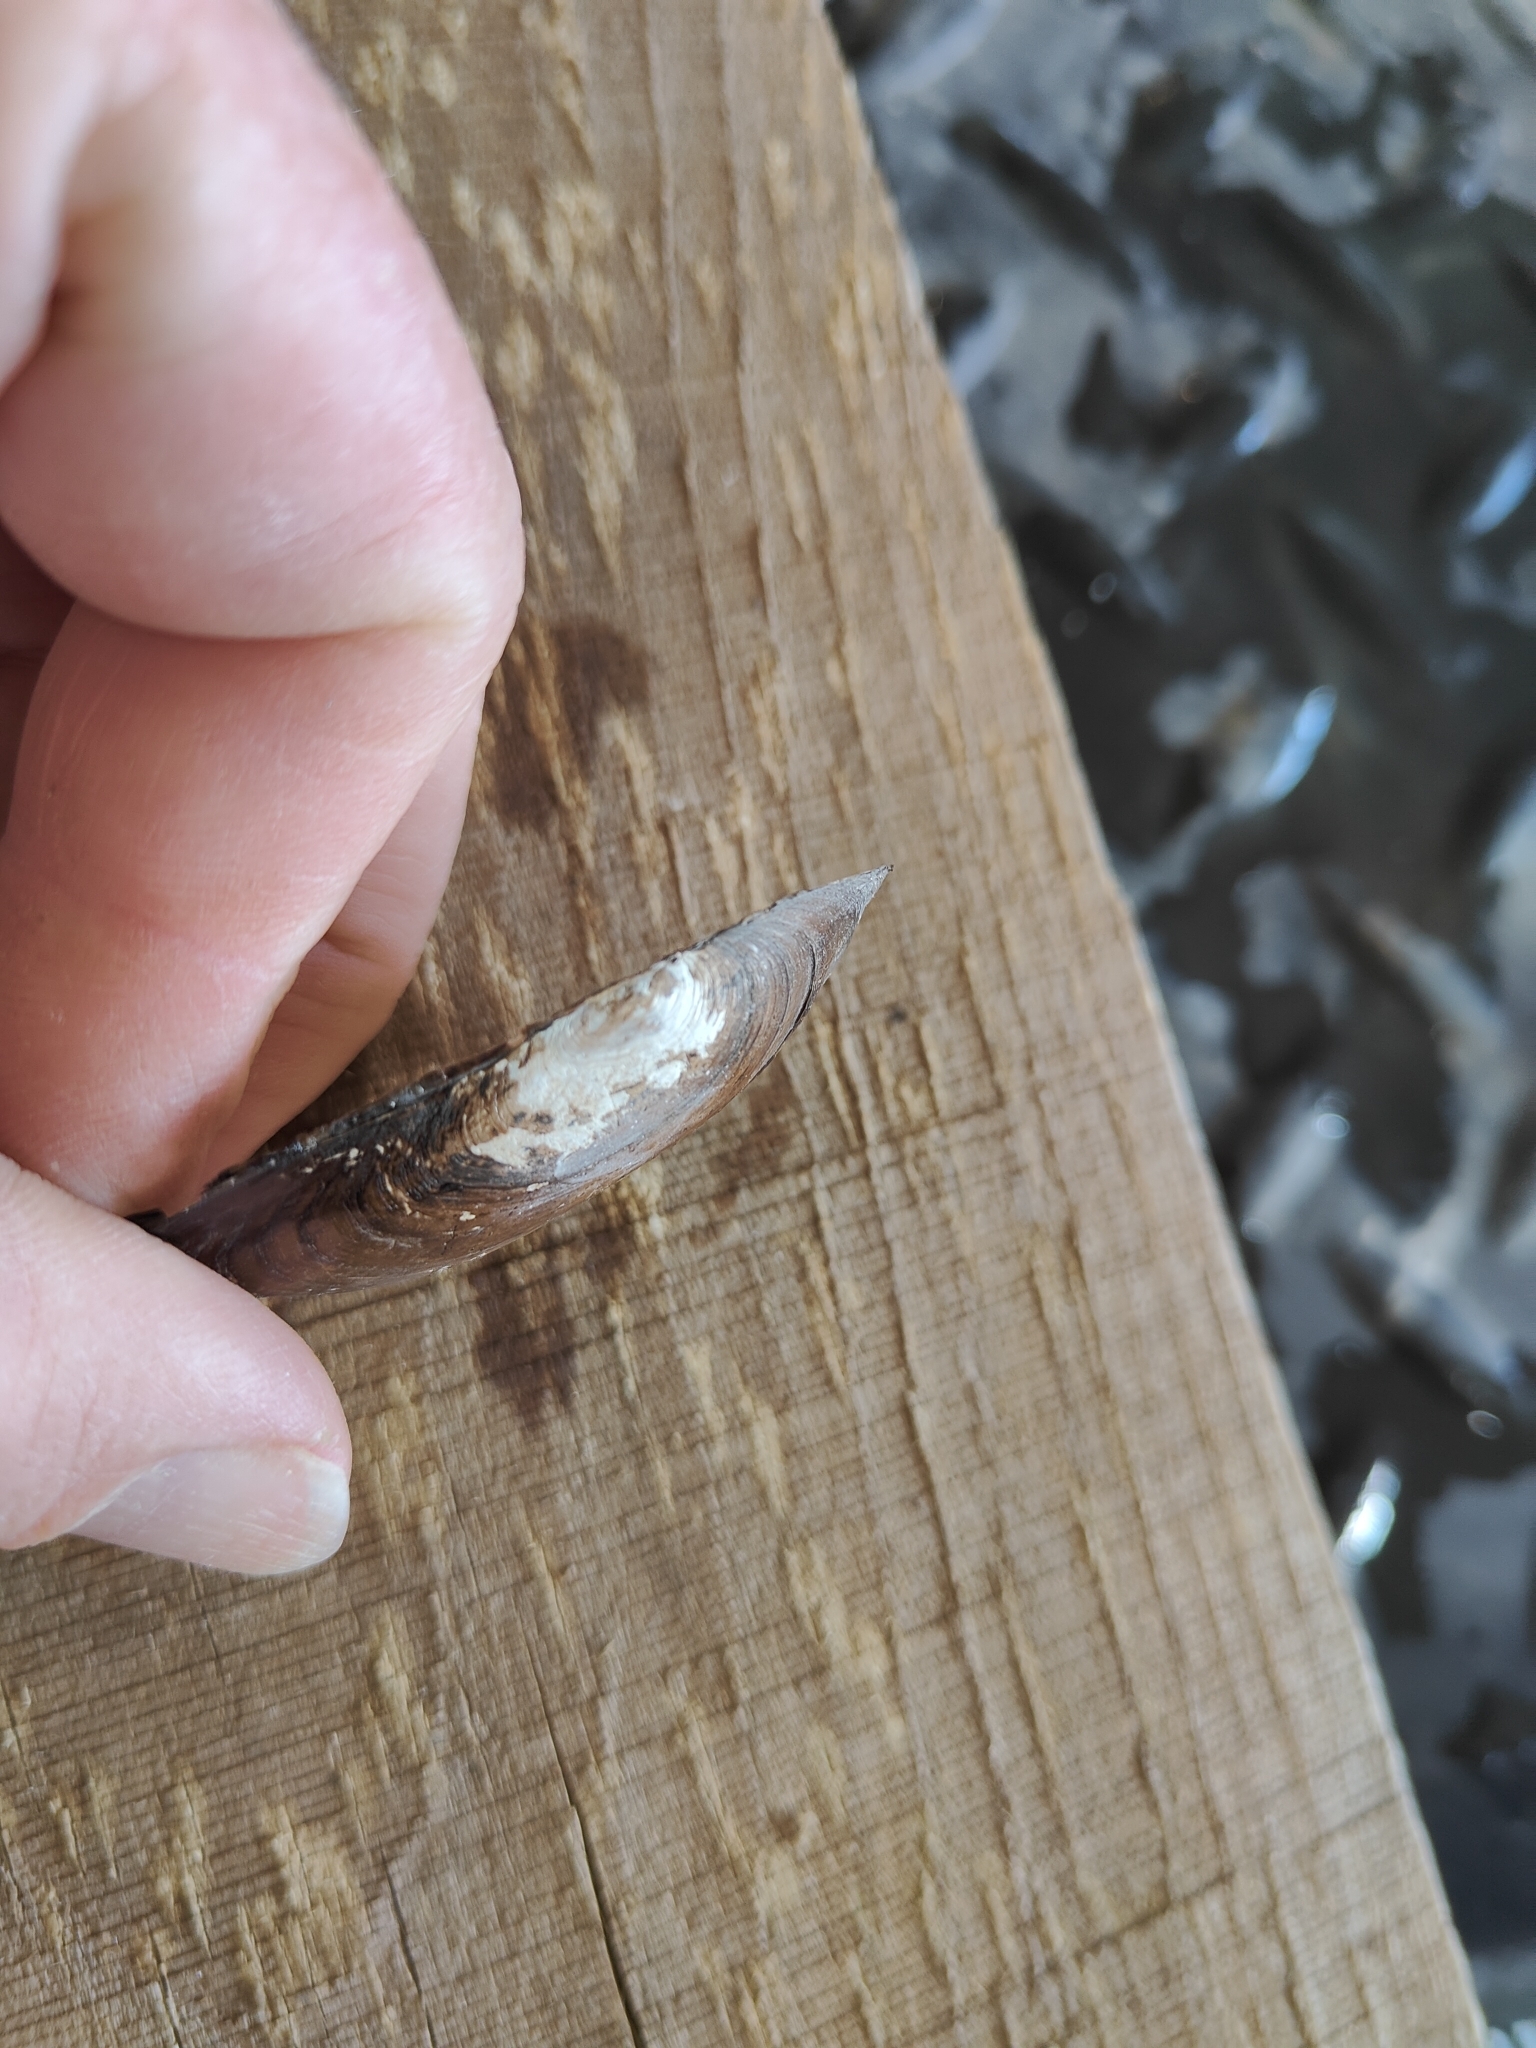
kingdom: Animalia
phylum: Mollusca
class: Bivalvia
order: Unionida
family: Unionidae
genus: Utterbackia
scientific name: Utterbackia imbecillis
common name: Paper pondshell
